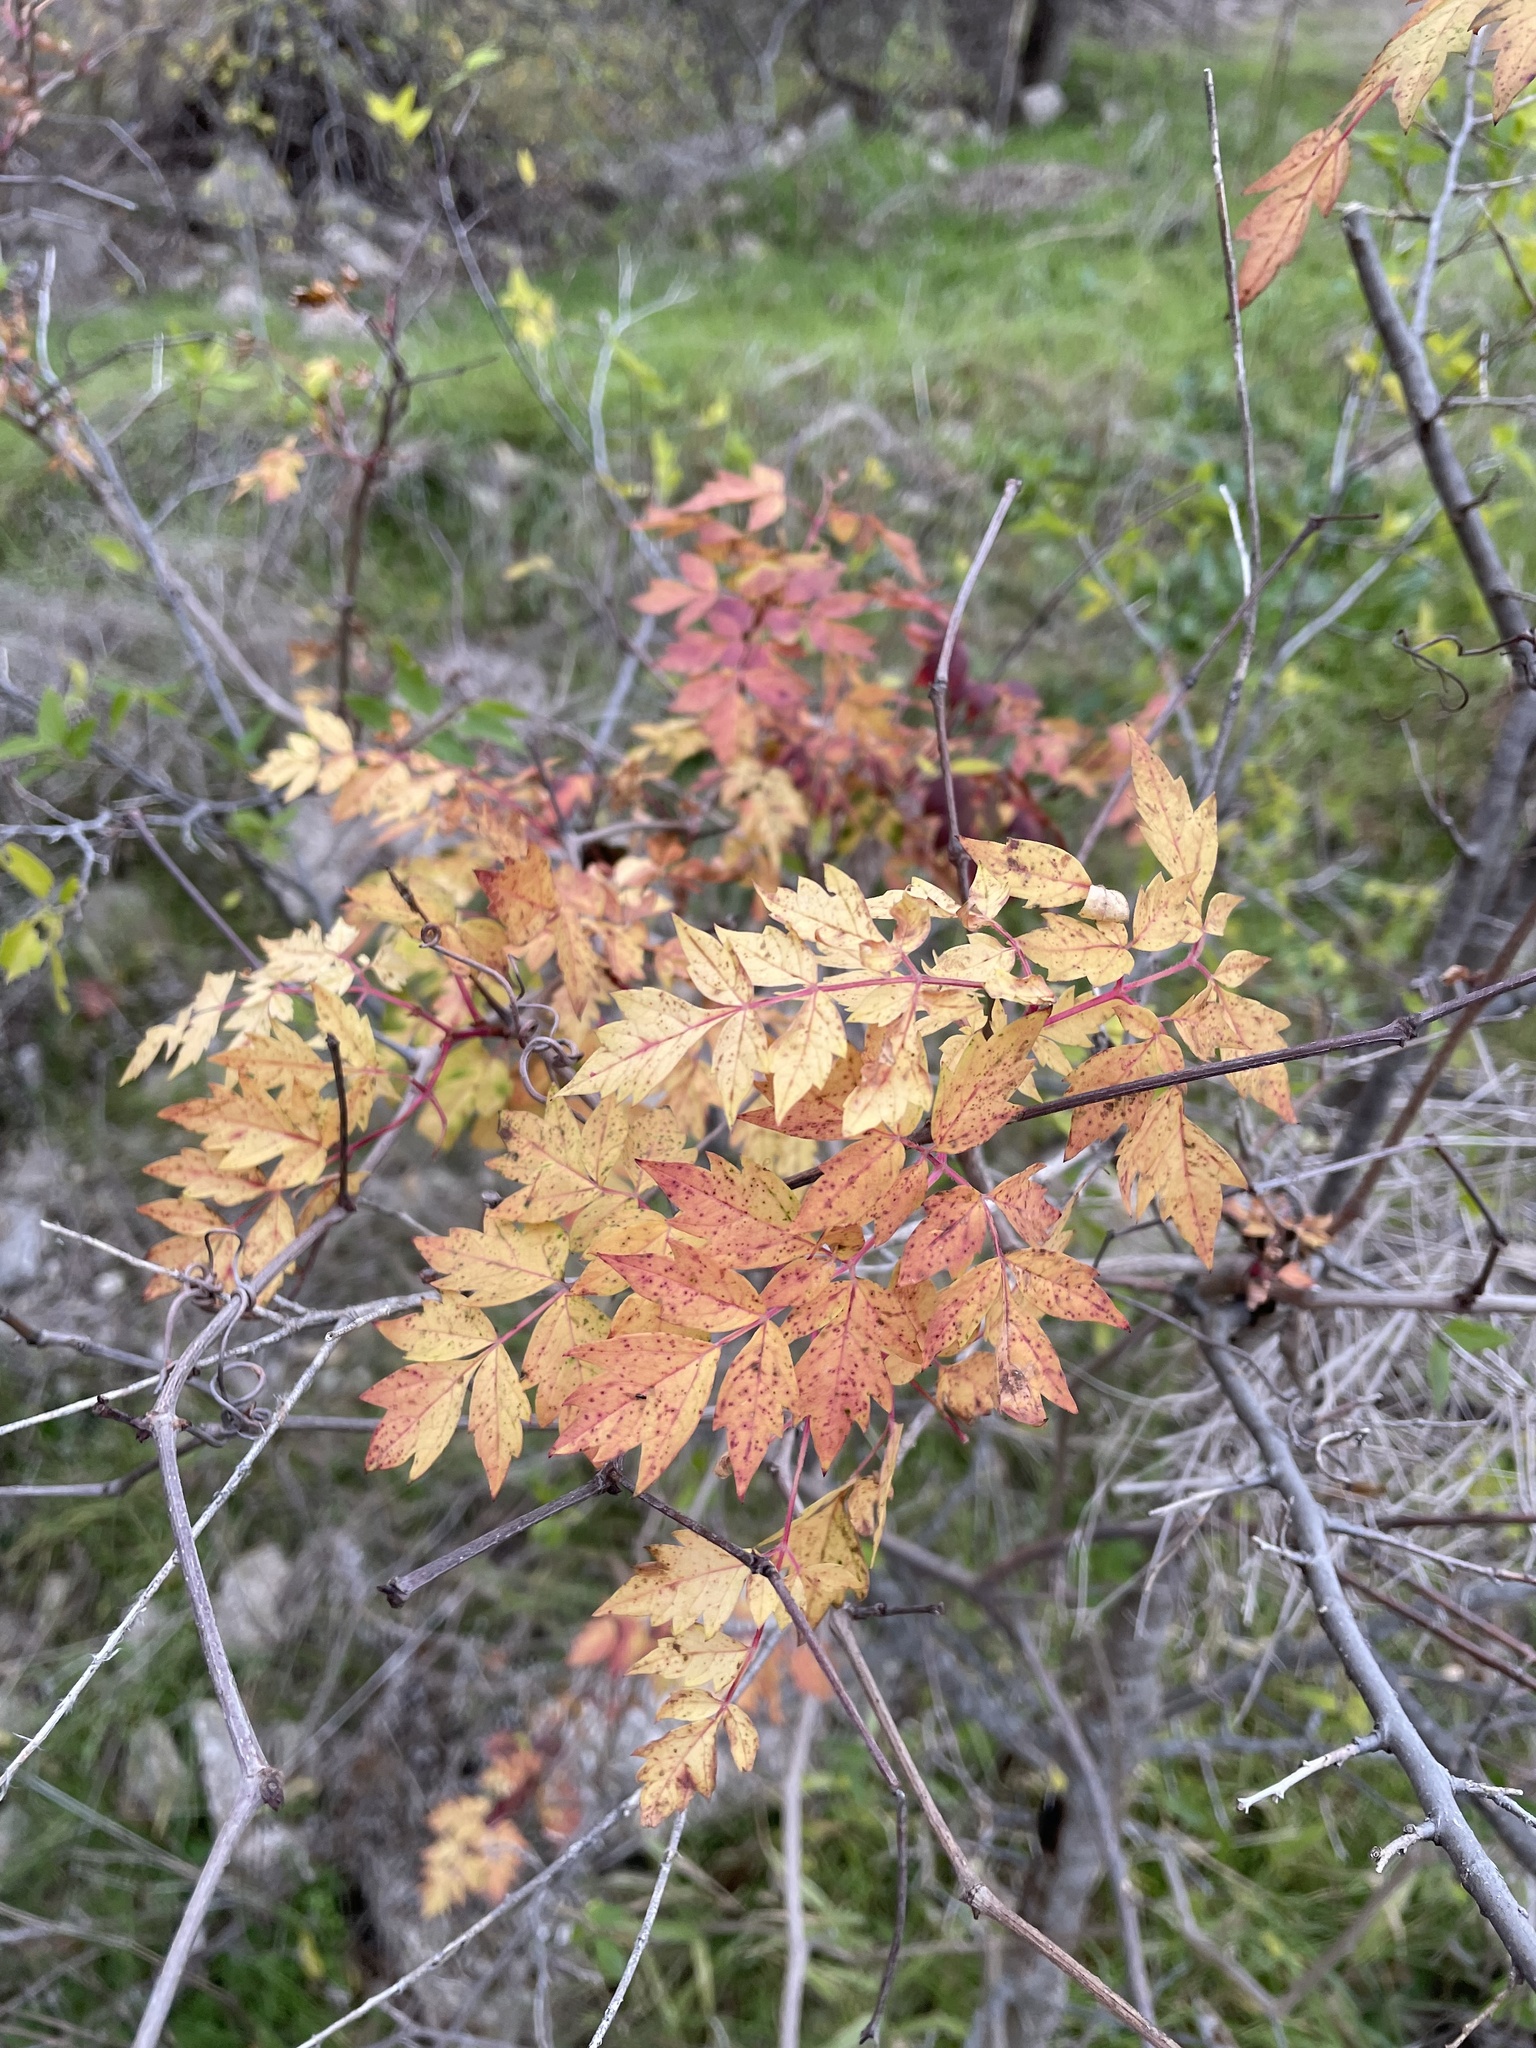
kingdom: Plantae
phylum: Tracheophyta
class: Magnoliopsida
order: Vitales
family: Vitaceae
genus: Nekemias
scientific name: Nekemias arborea
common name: Peppervine
